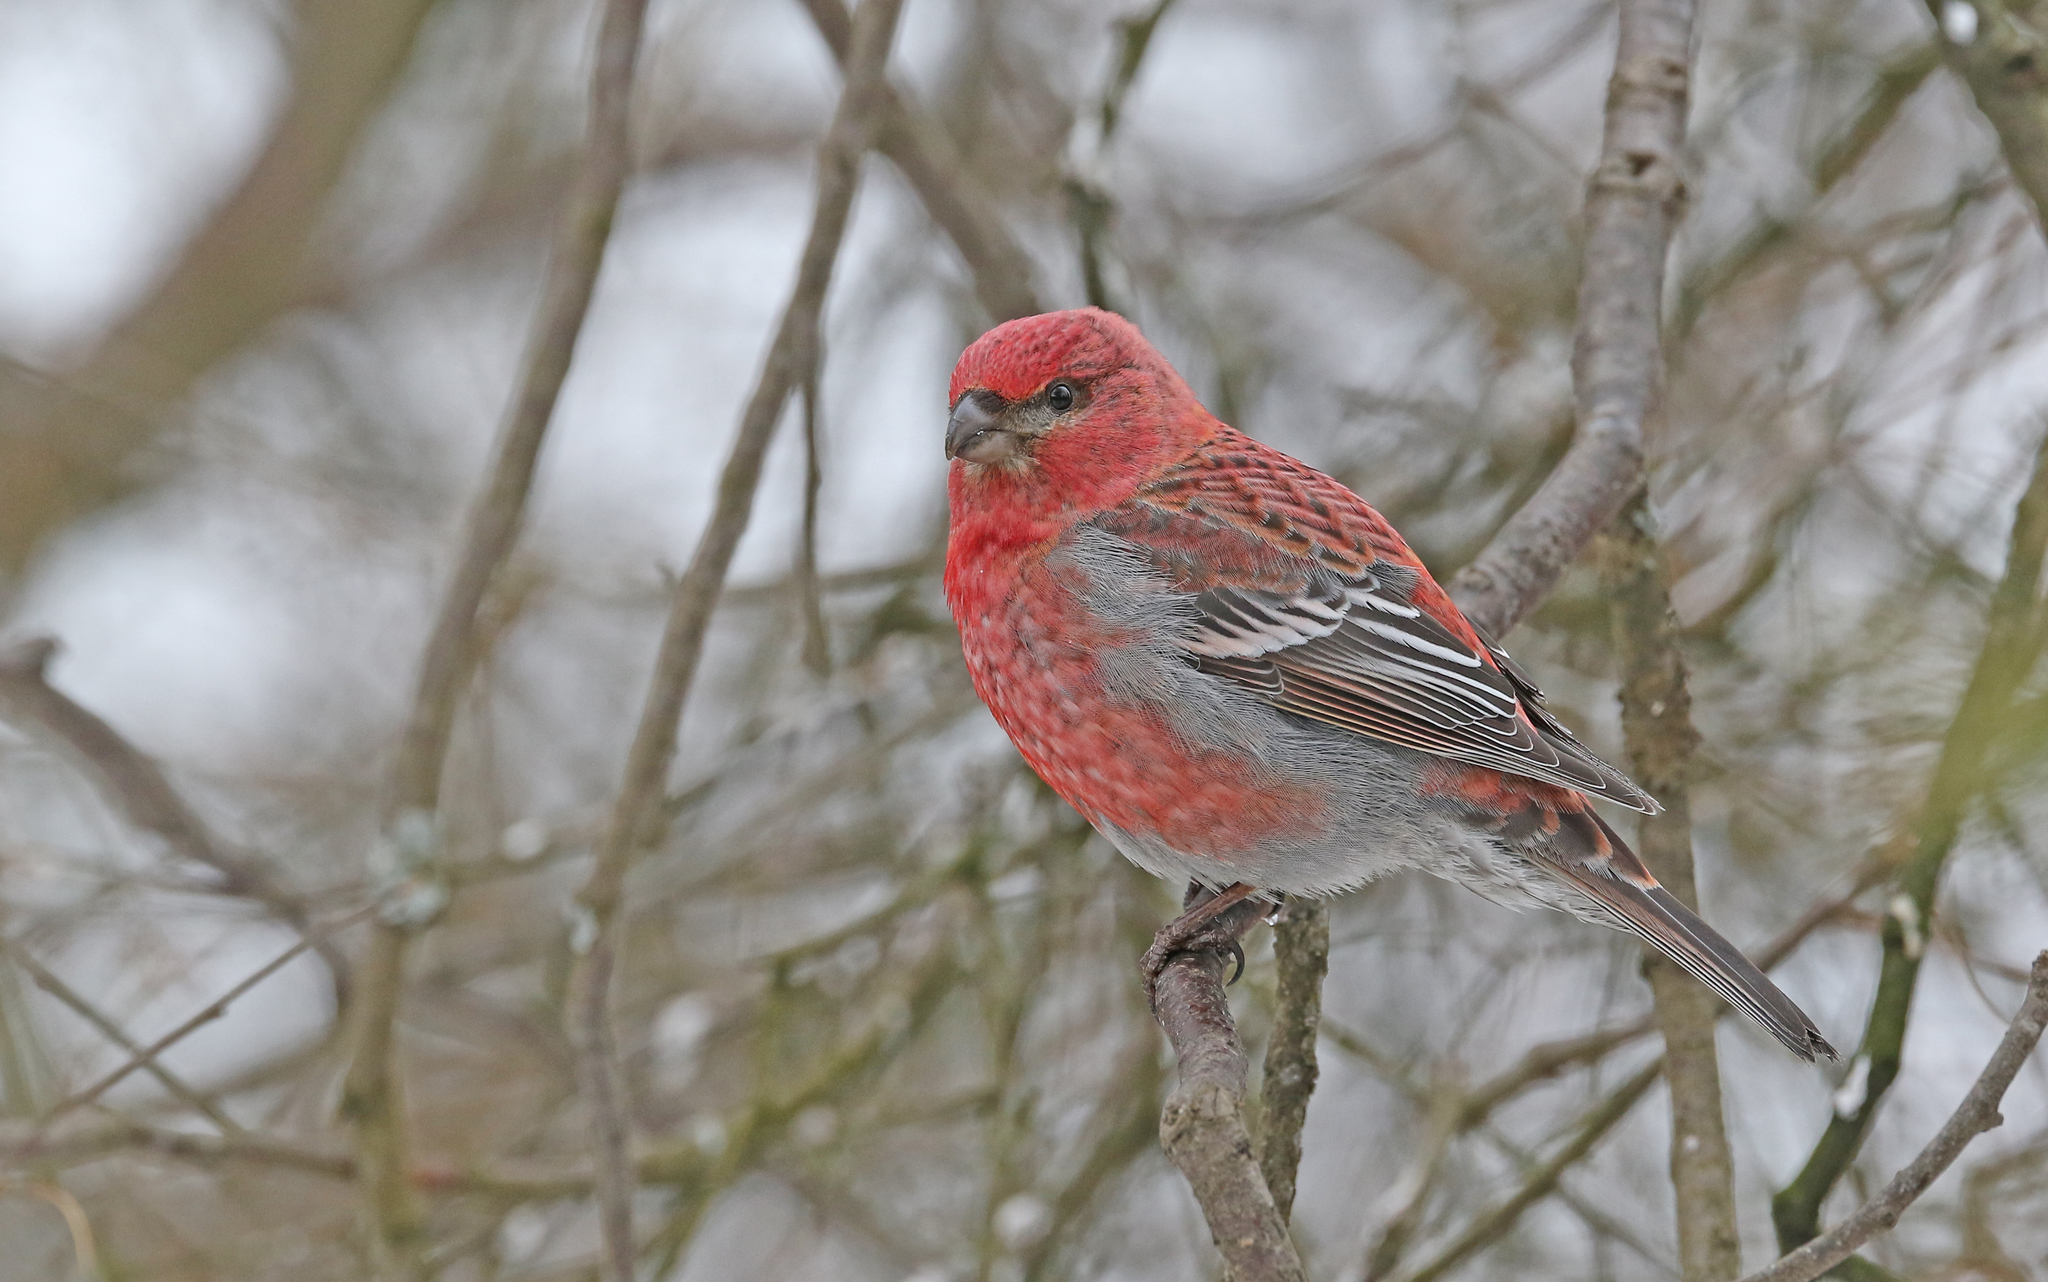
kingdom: Animalia
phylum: Chordata
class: Aves
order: Passeriformes
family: Fringillidae
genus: Pinicola
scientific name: Pinicola enucleator
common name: Pine grosbeak
